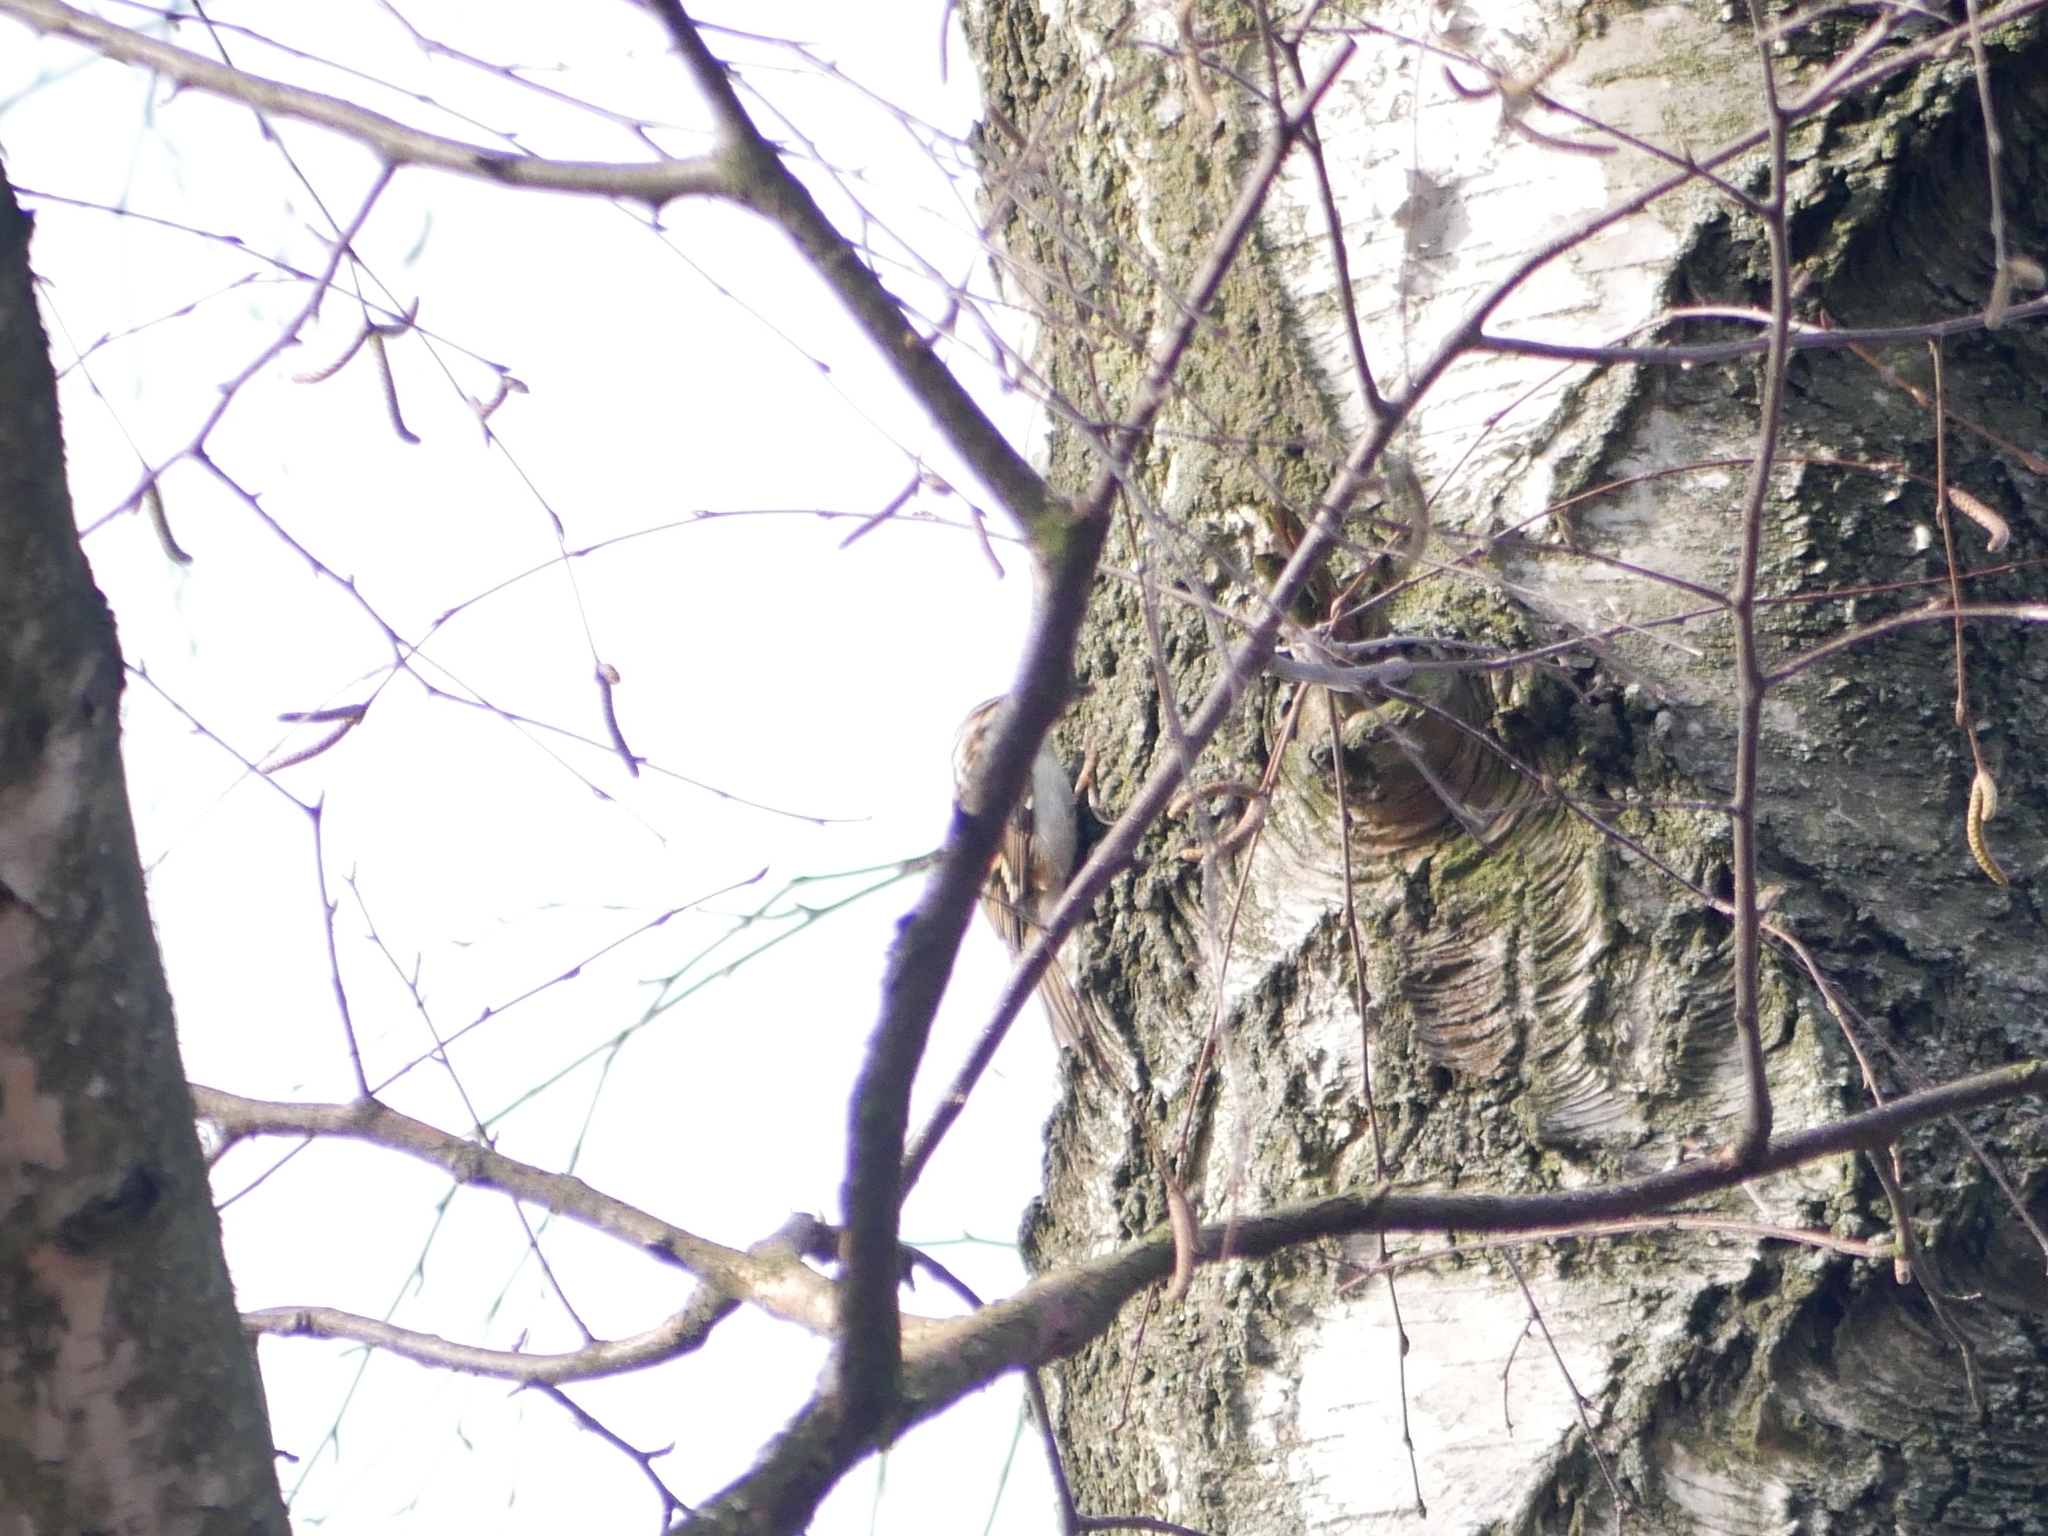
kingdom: Animalia
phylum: Chordata
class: Aves
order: Passeriformes
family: Certhiidae
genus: Certhia
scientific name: Certhia
